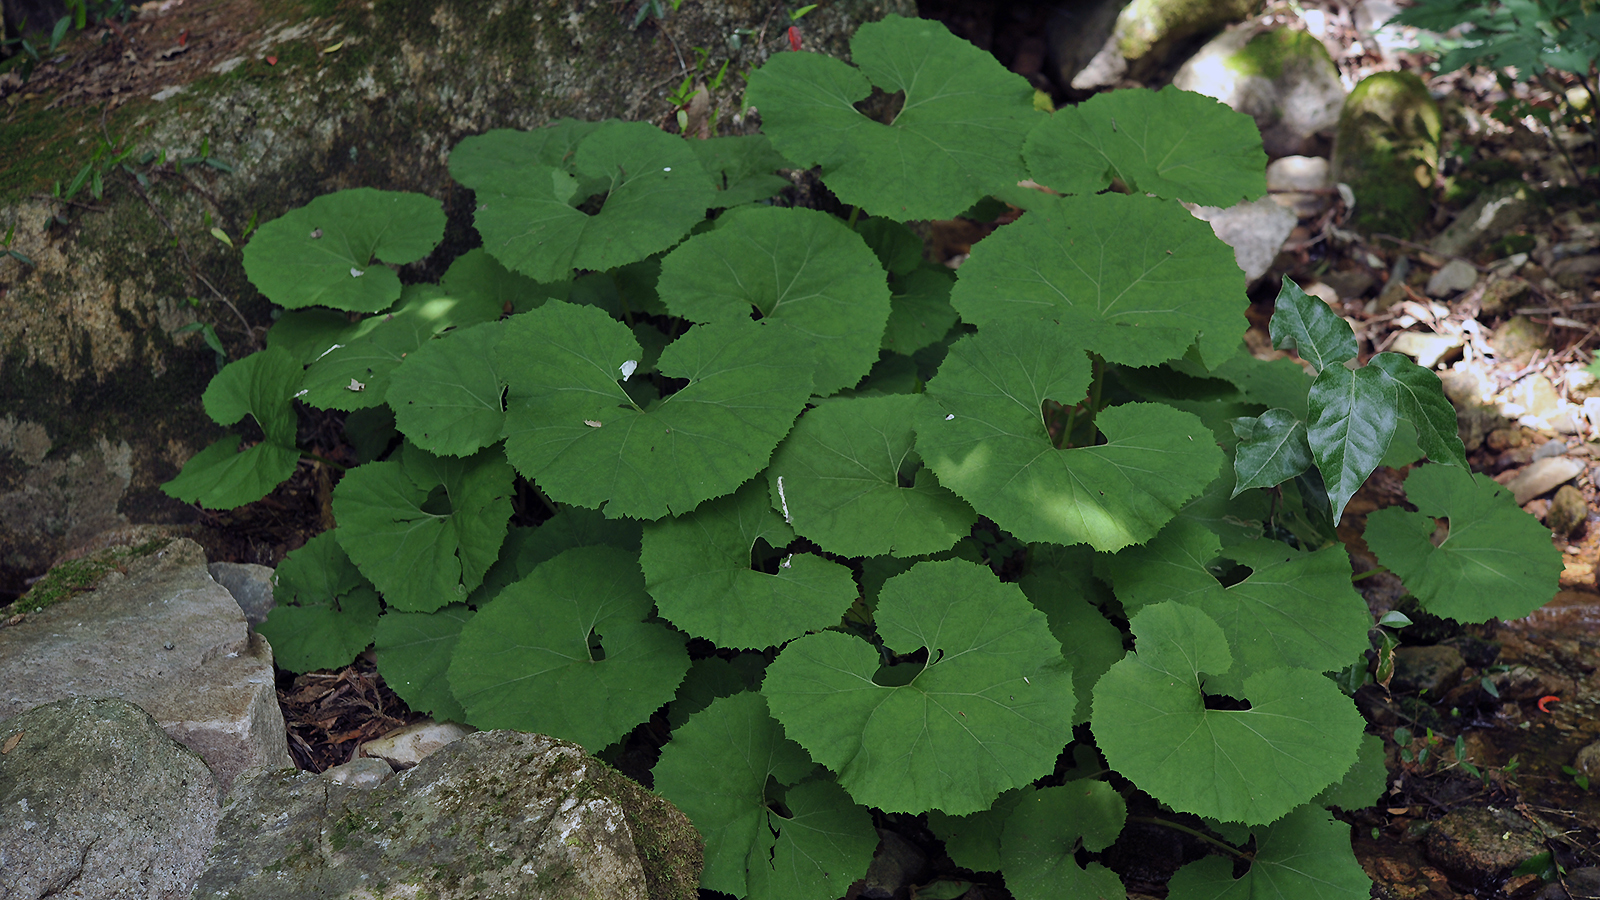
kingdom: Plantae
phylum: Tracheophyta
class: Magnoliopsida
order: Asterales
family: Asteraceae
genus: Petasites
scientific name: Petasites japonicus
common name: Giant butterbur
